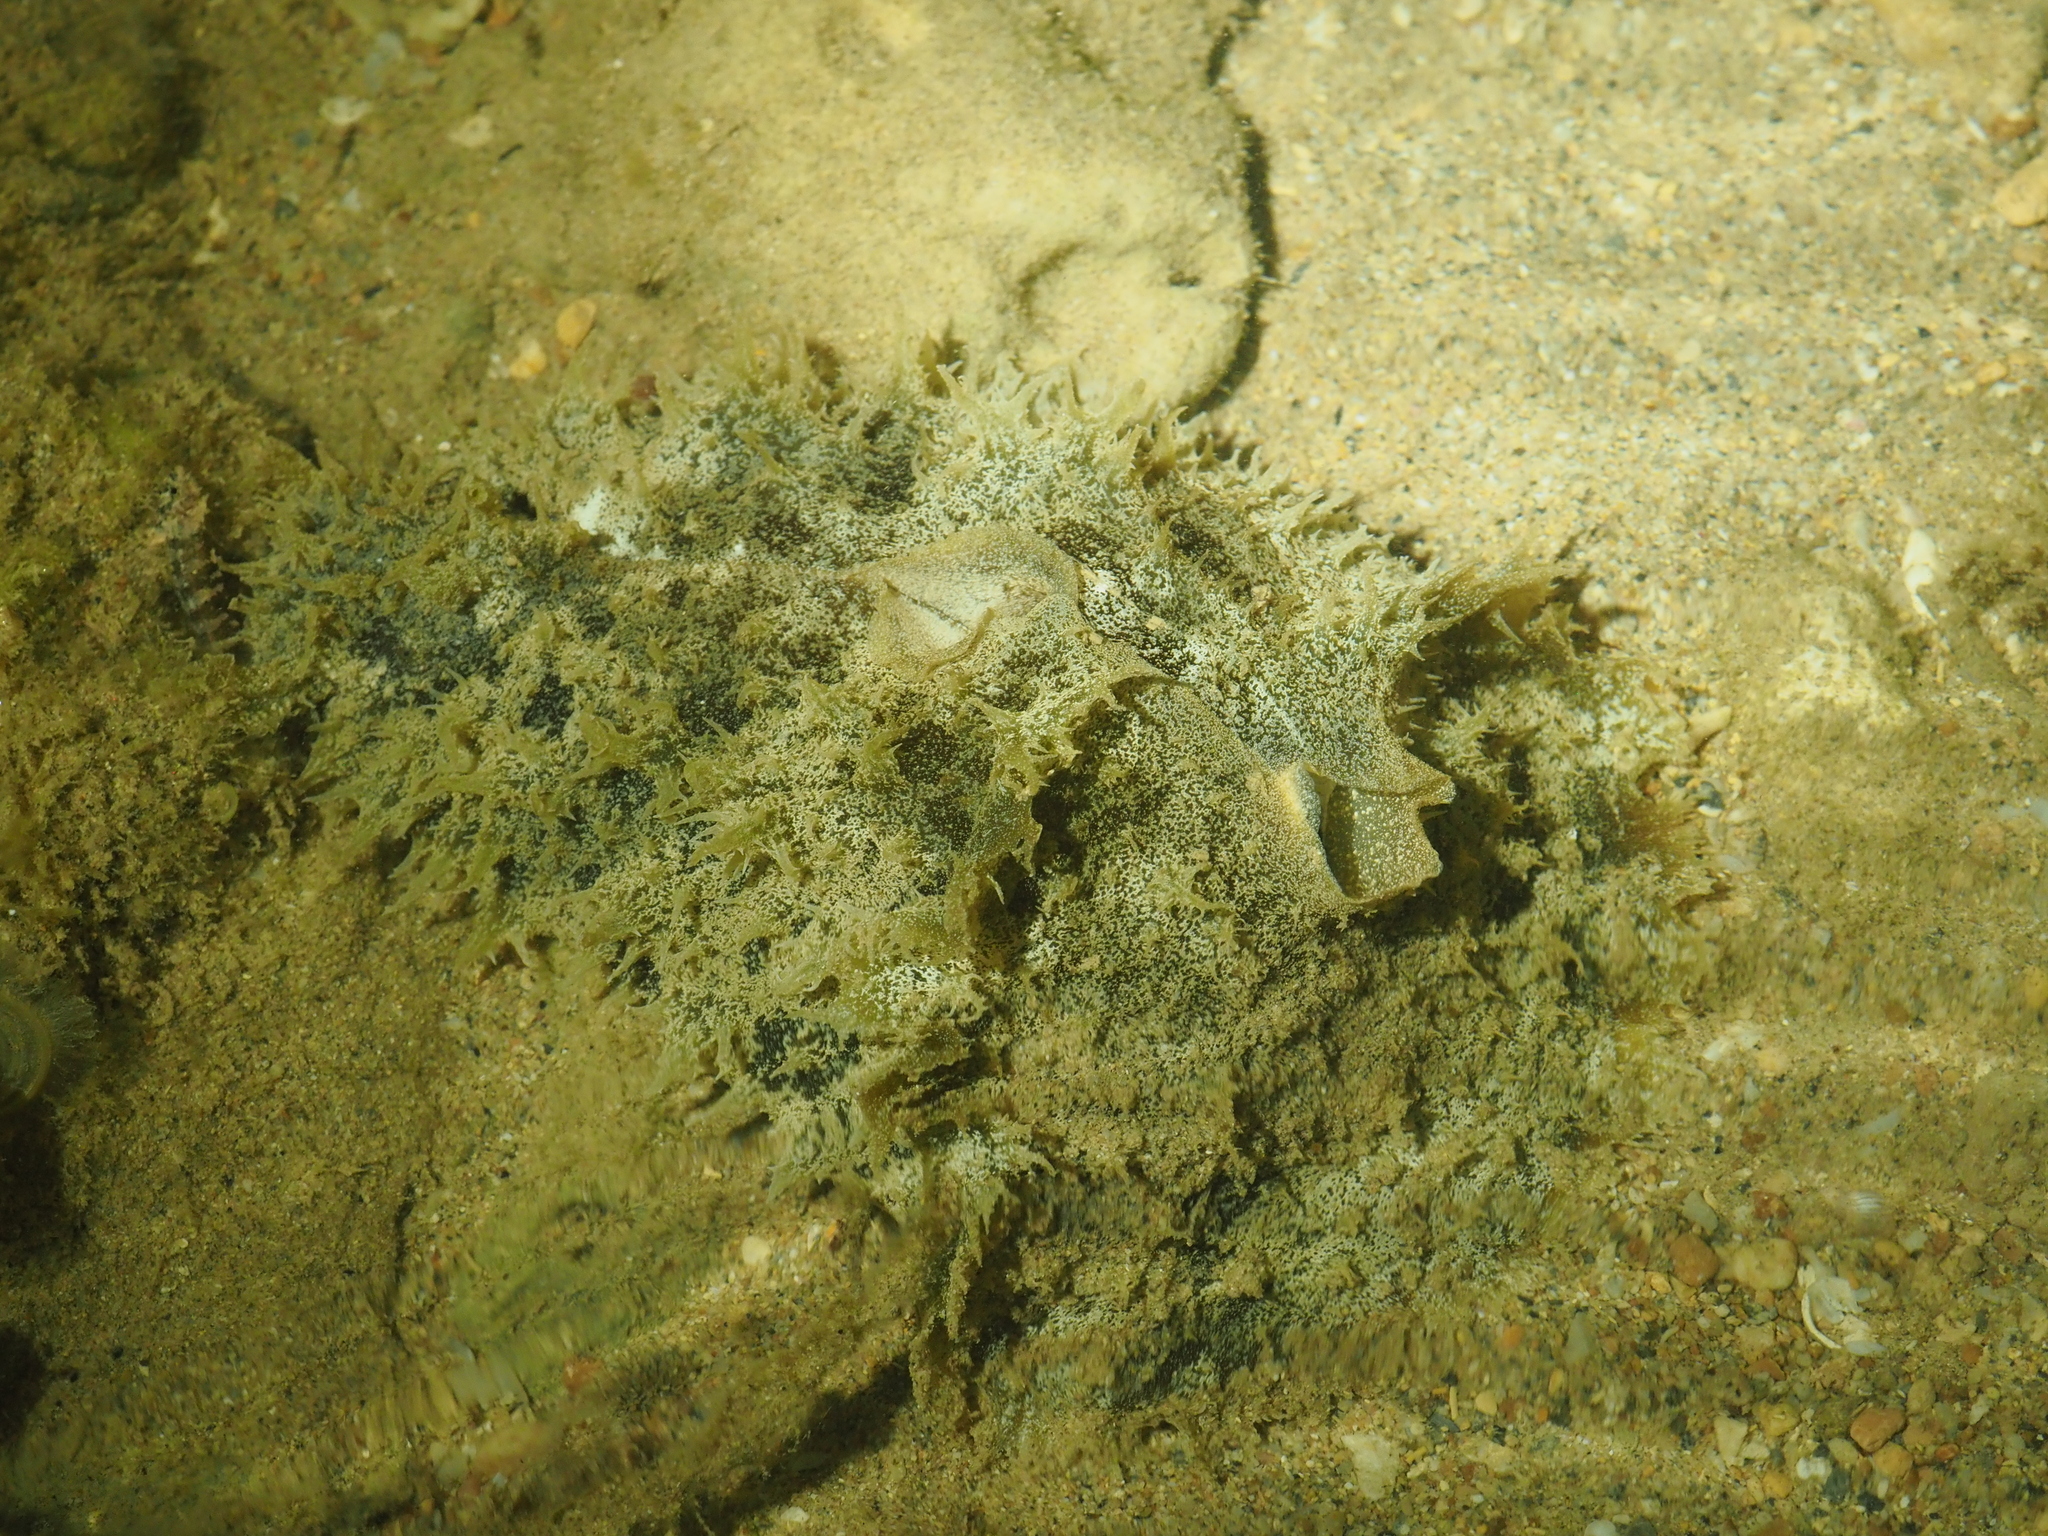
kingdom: Animalia
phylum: Mollusca
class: Gastropoda
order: Aplysiida
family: Aplysiidae
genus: Dolabella
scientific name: Dolabella auricularia
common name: Blunt-end seahare
